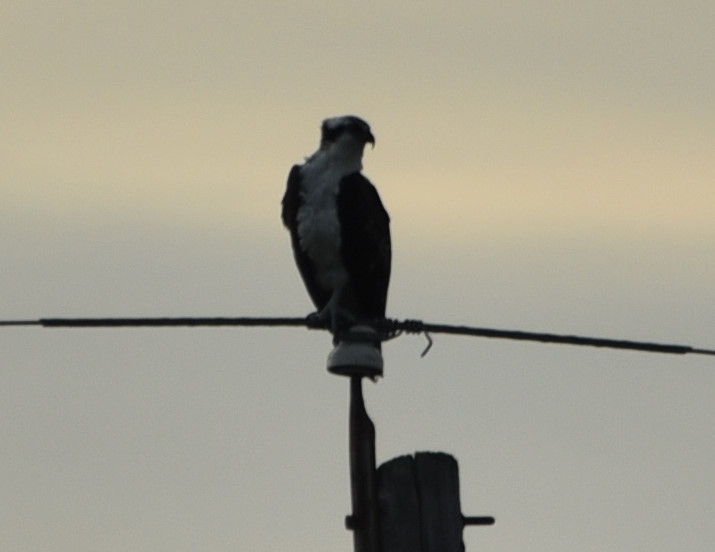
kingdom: Animalia
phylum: Chordata
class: Aves
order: Accipitriformes
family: Pandionidae
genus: Pandion
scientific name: Pandion haliaetus
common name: Osprey
